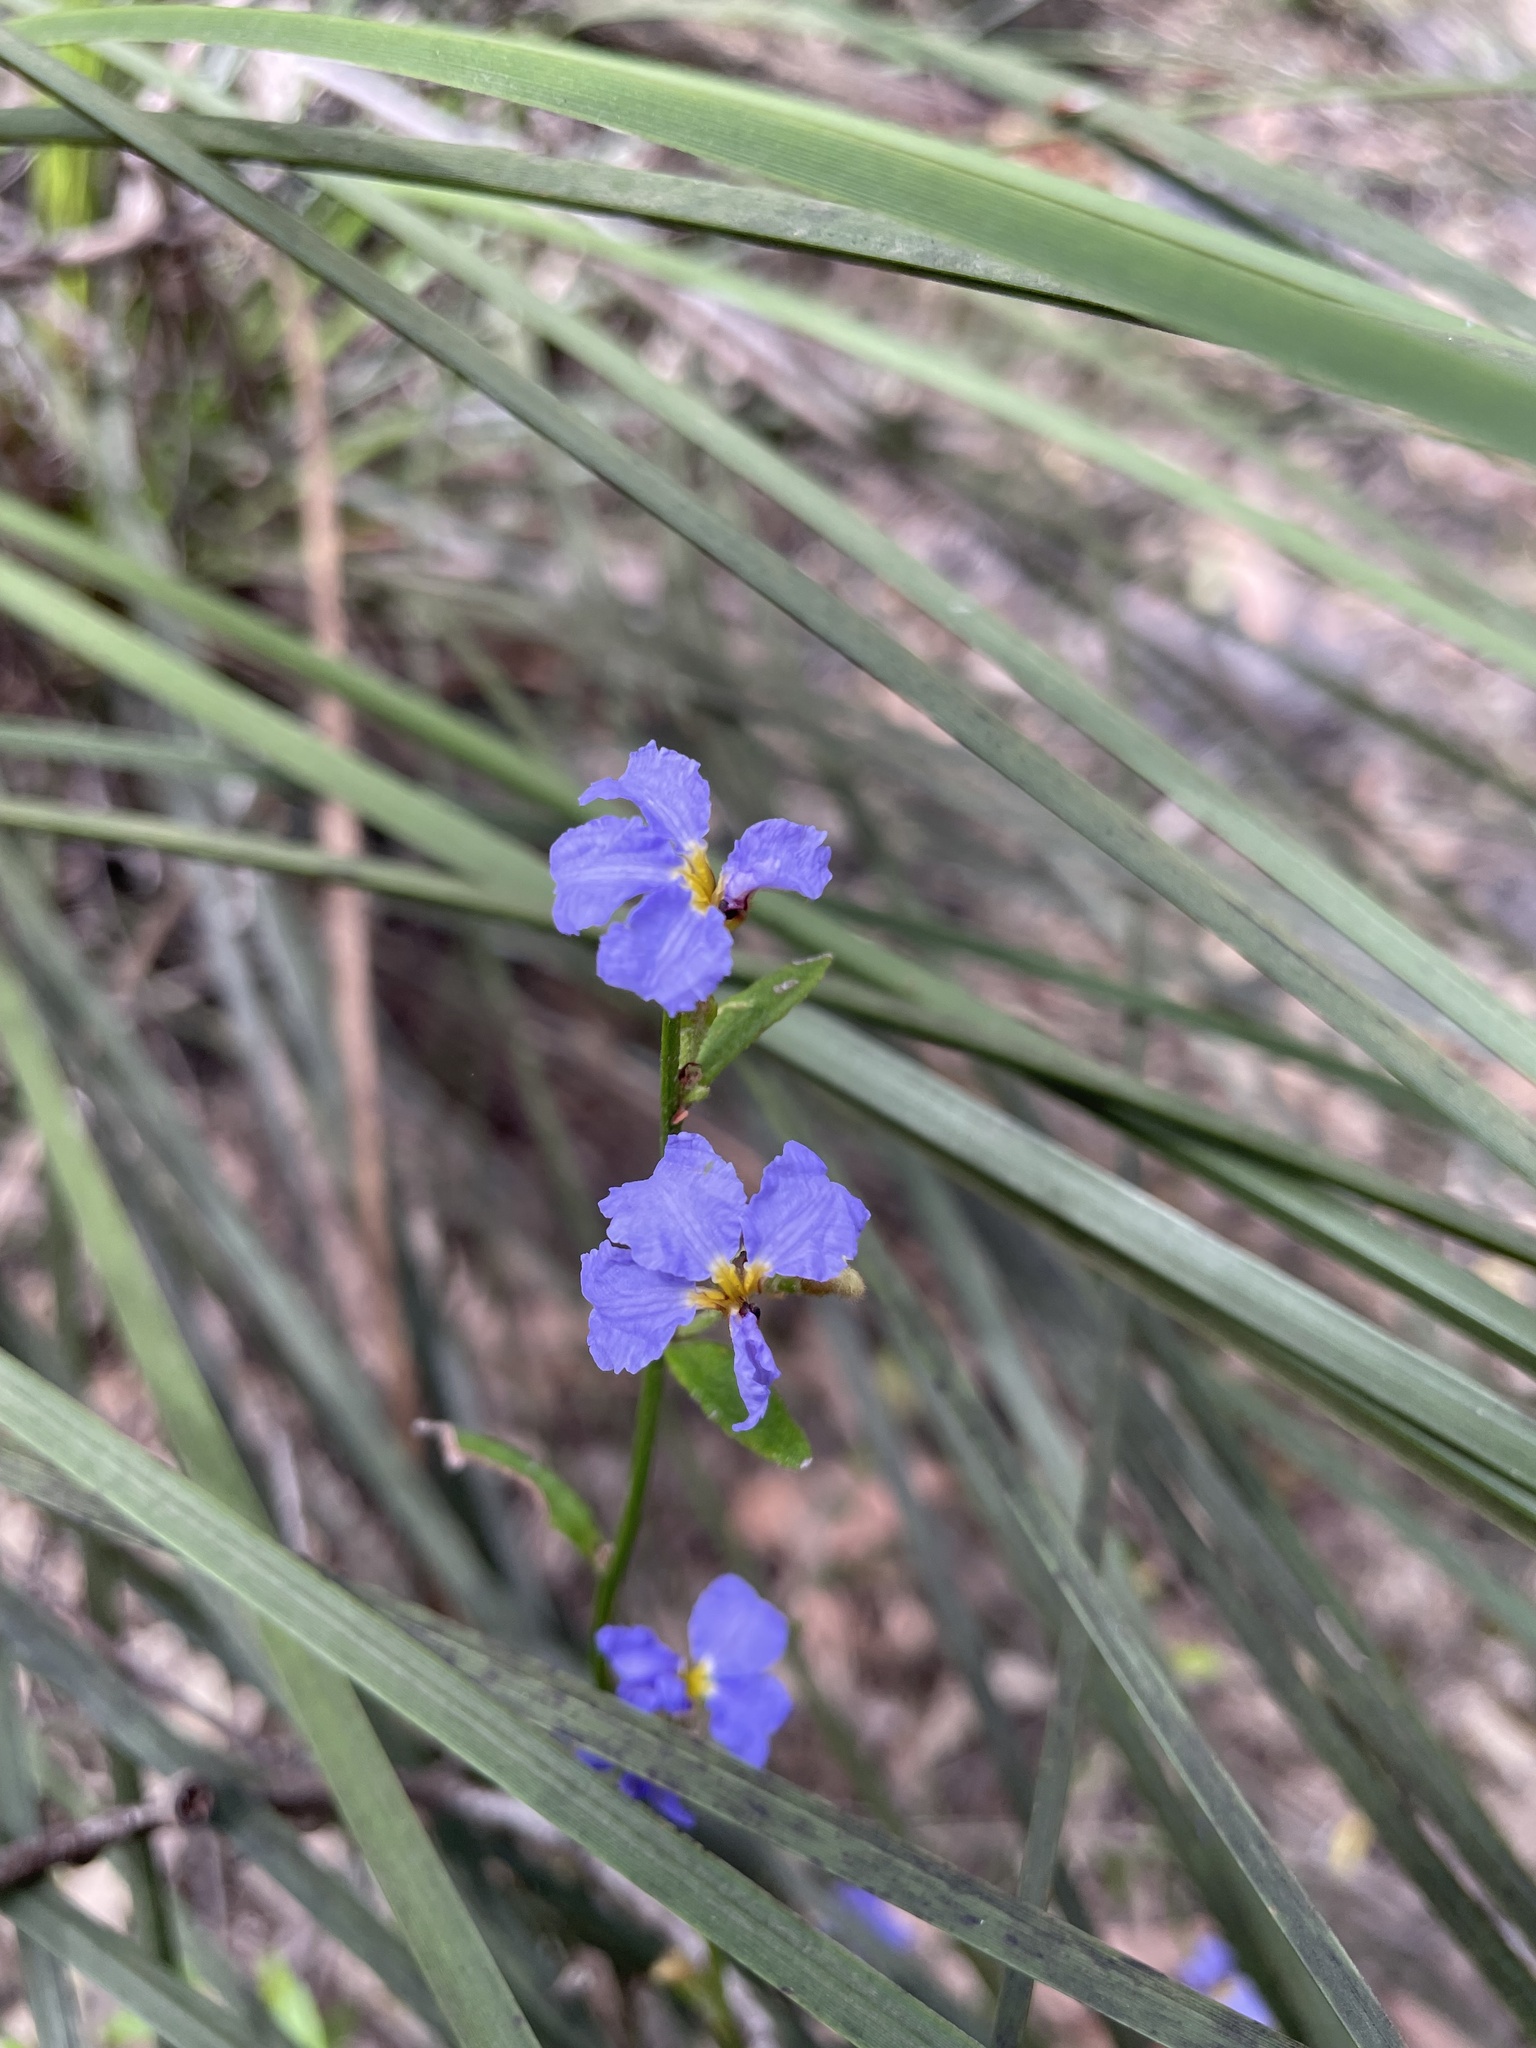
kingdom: Plantae
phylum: Tracheophyta
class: Magnoliopsida
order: Asterales
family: Goodeniaceae
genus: Dampiera
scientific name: Dampiera stricta
